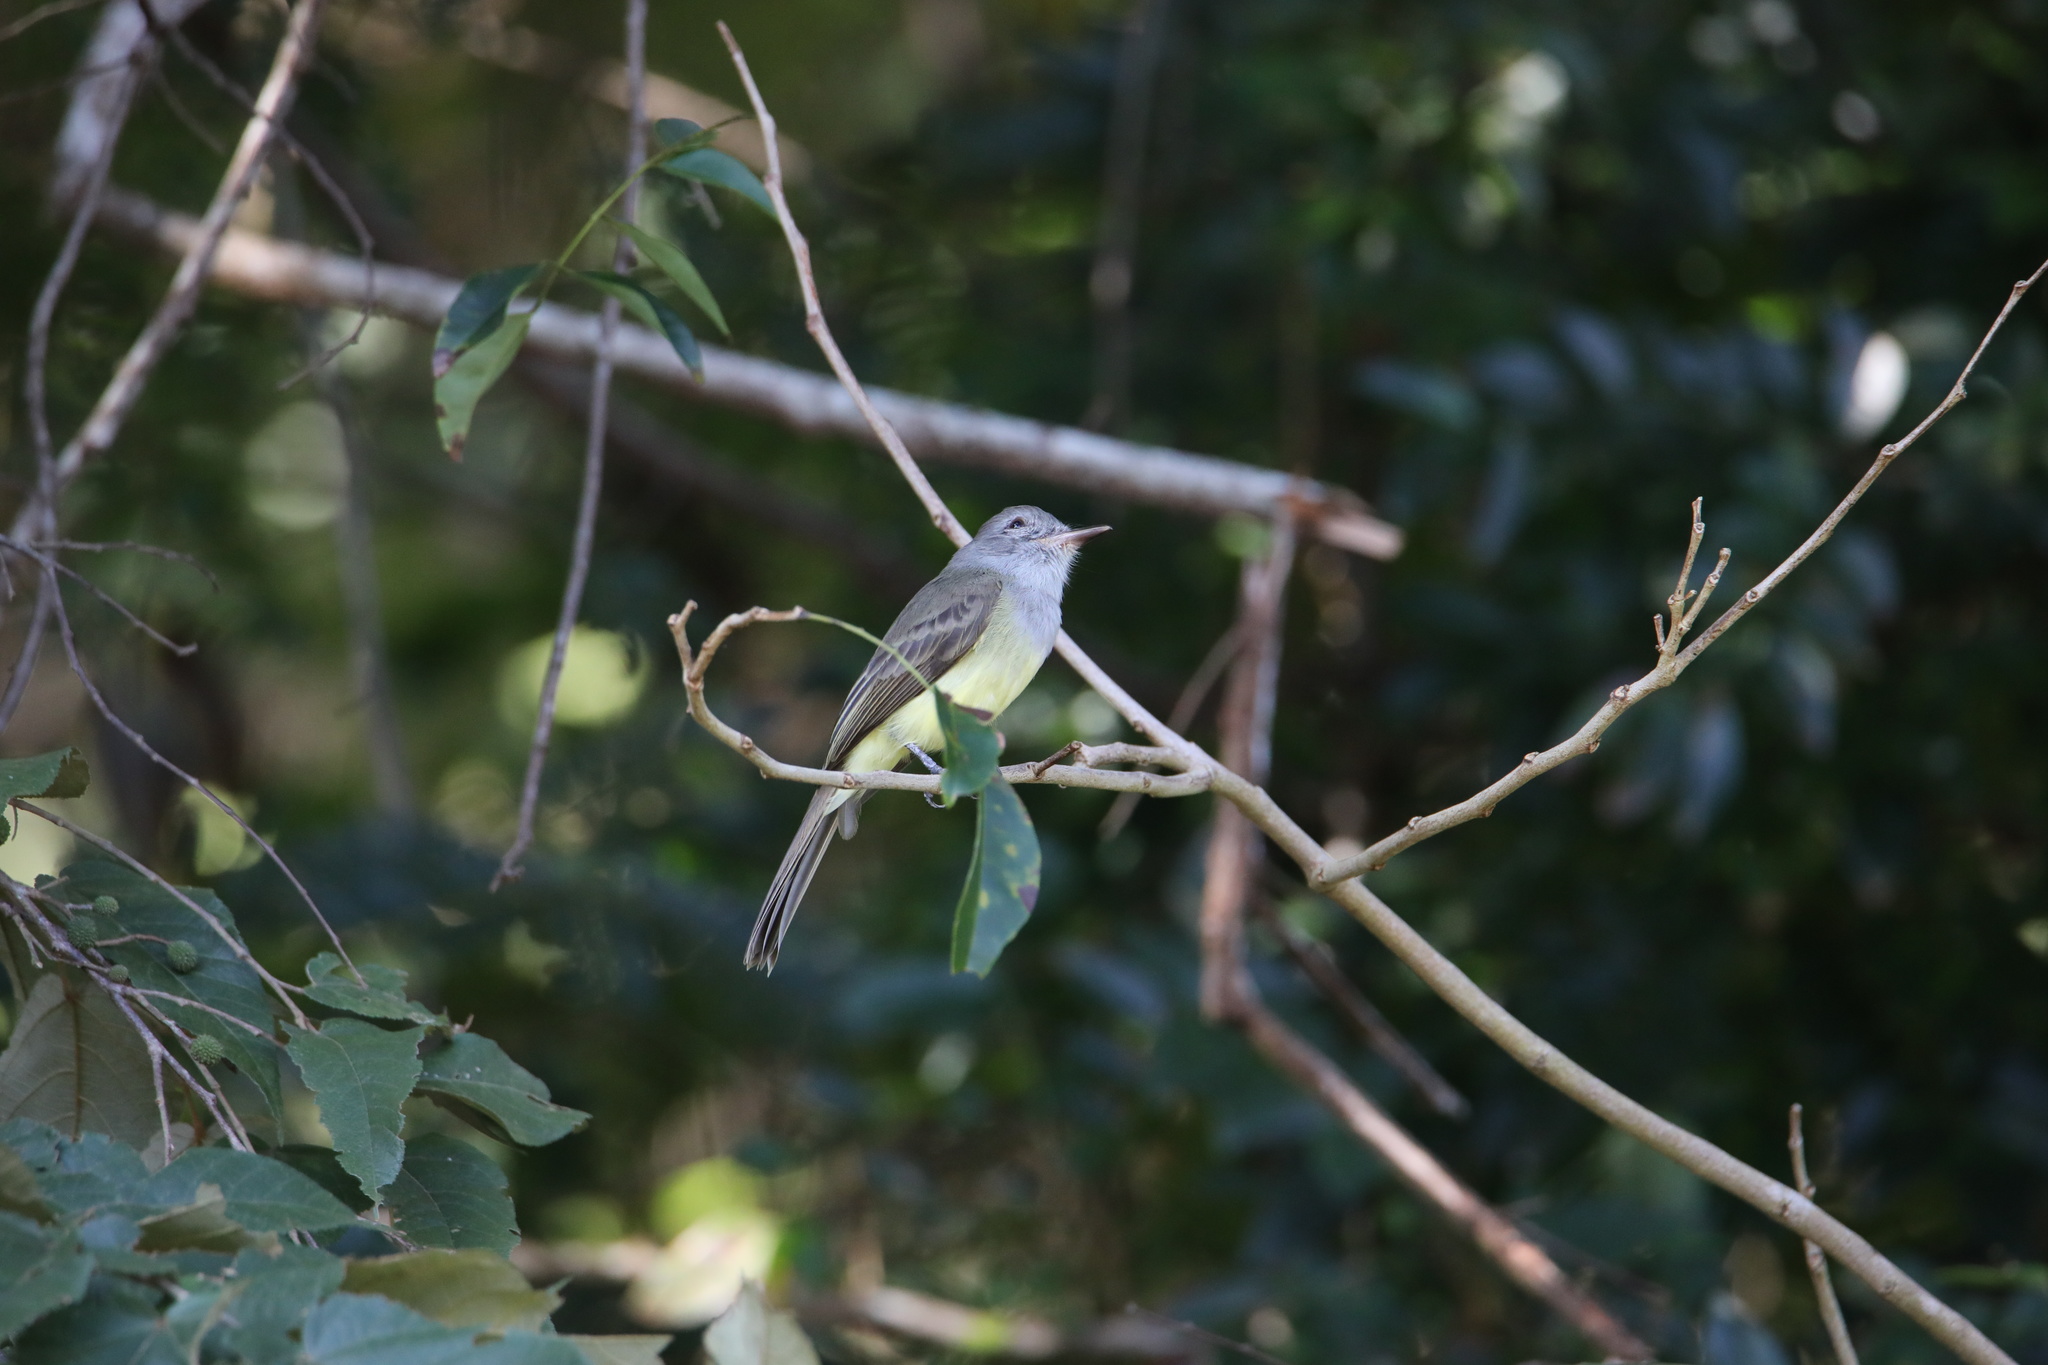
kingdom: Animalia
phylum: Chordata
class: Aves
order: Passeriformes
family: Tyrannidae
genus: Myiarchus
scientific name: Myiarchus panamensis
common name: Panama flycatcher
